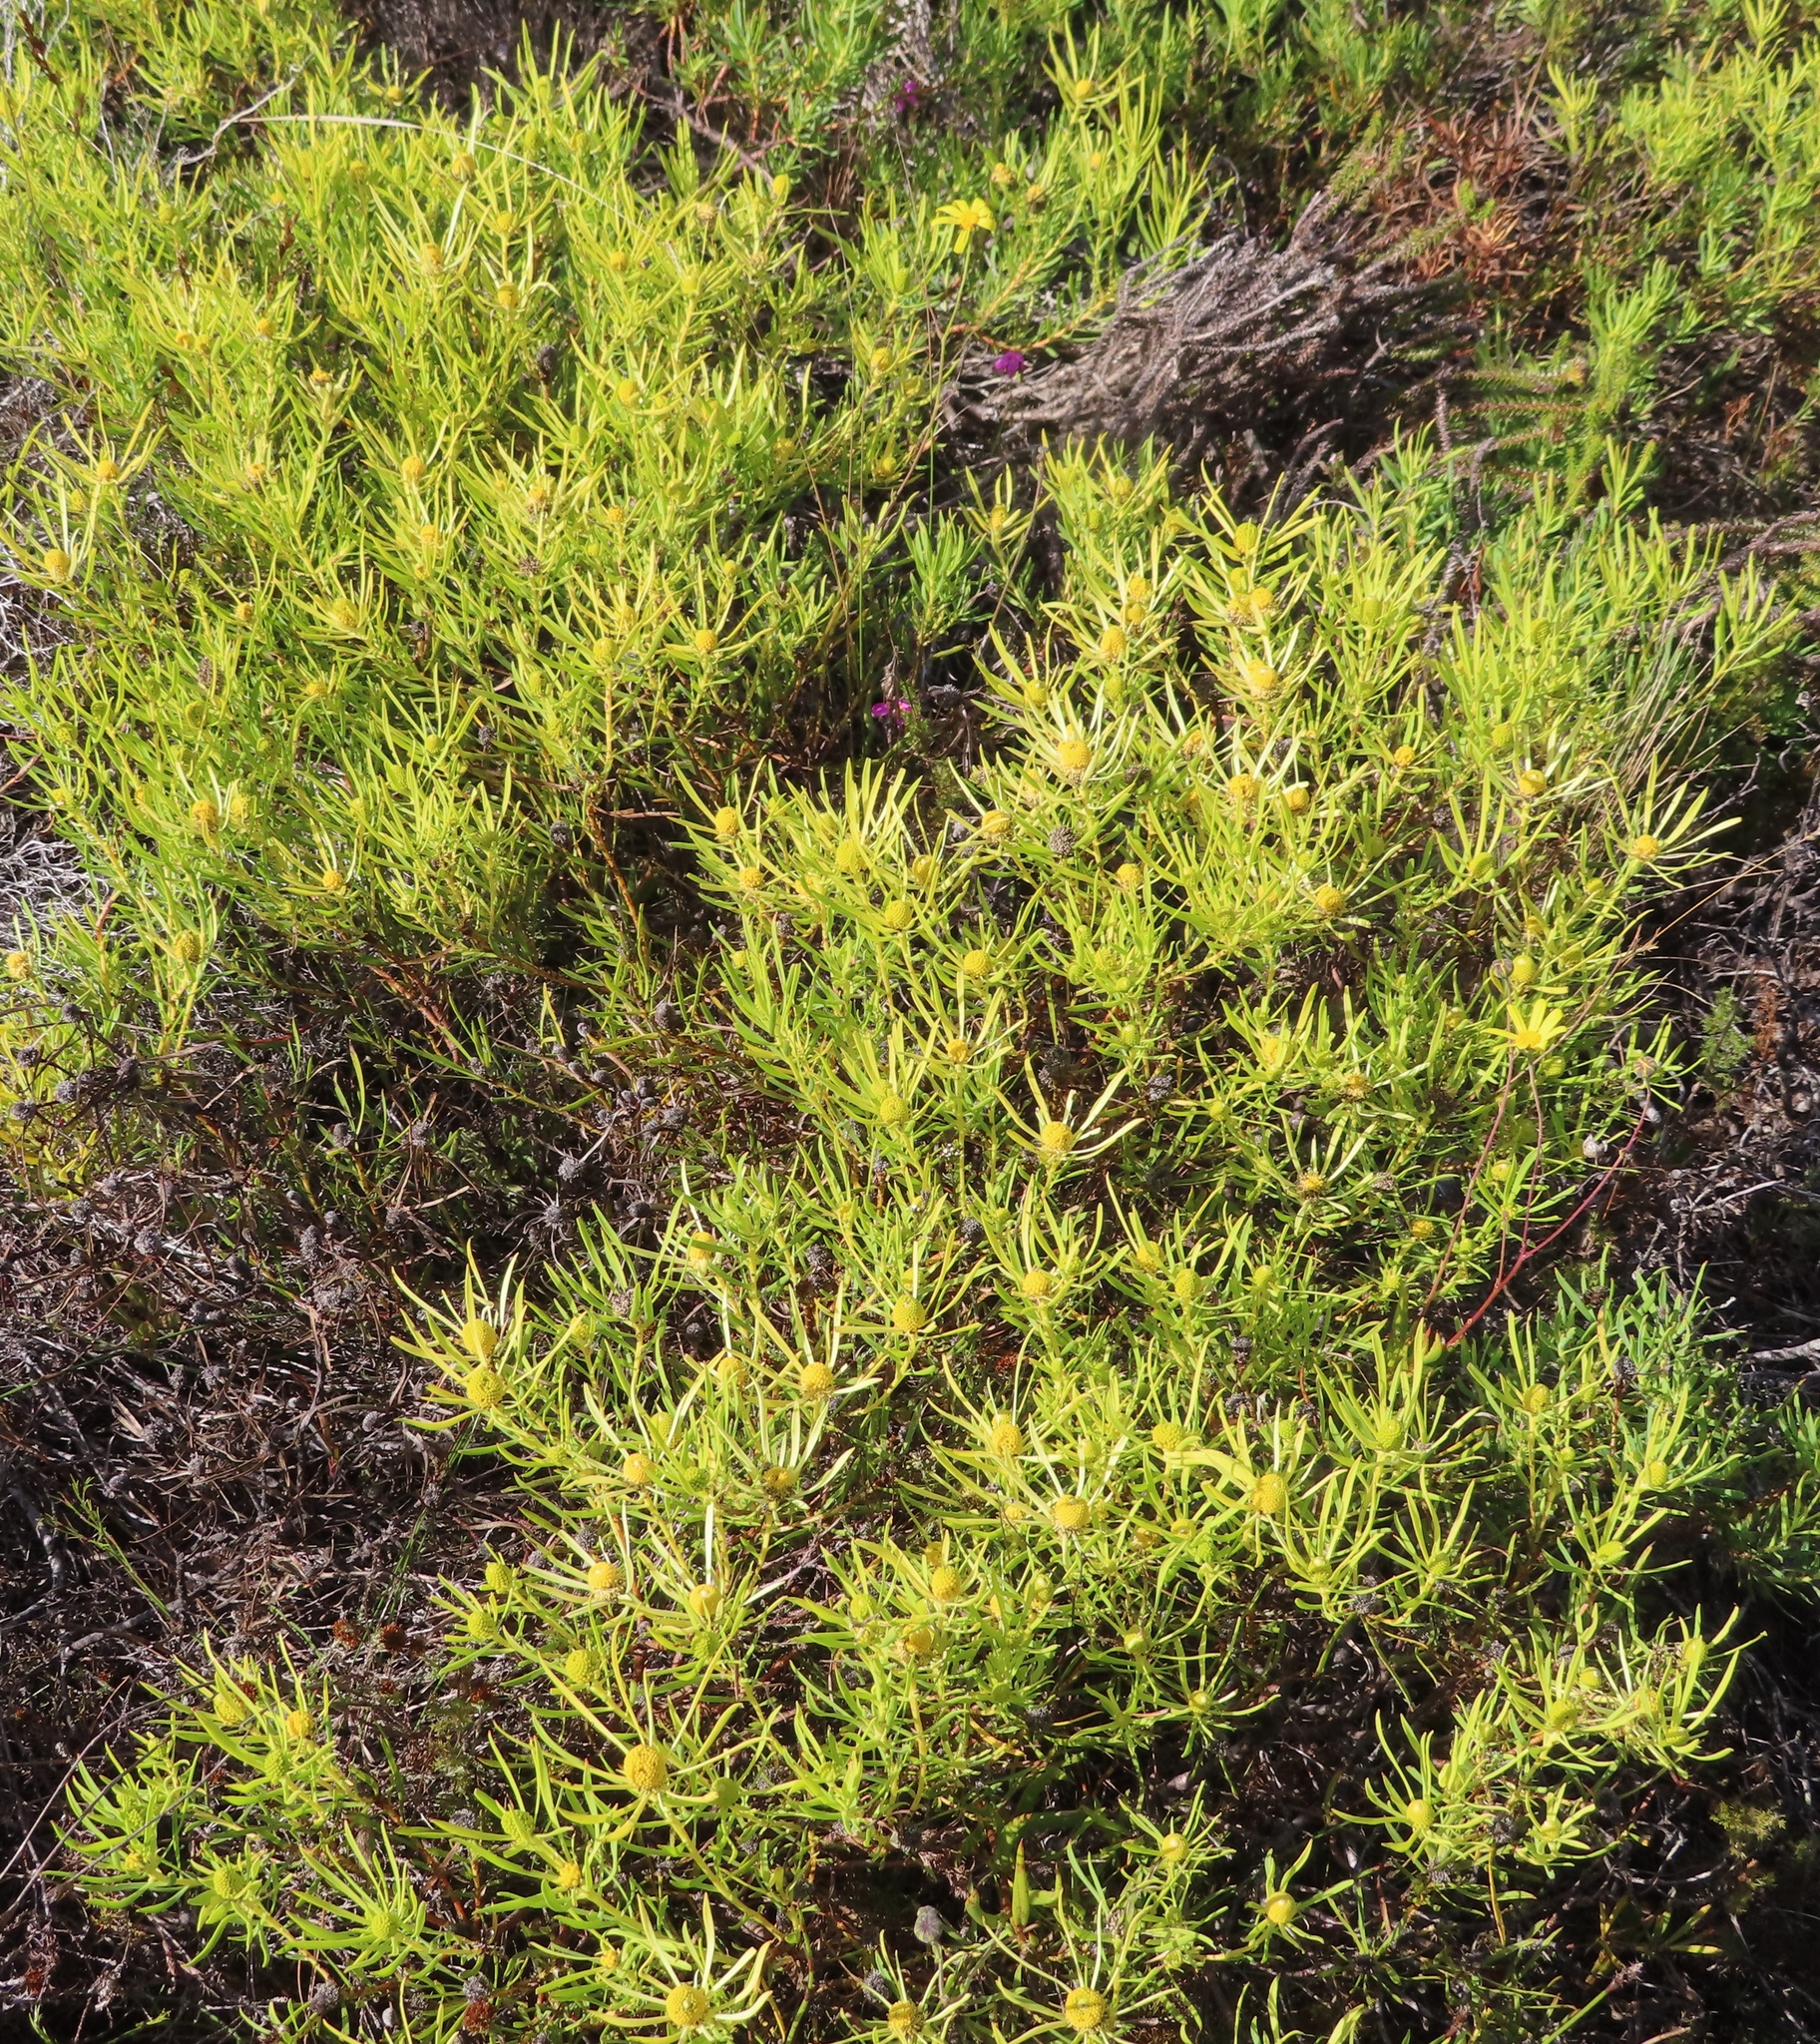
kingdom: Plantae
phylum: Tracheophyta
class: Magnoliopsida
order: Proteales
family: Proteaceae
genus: Leucadendron
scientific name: Leucadendron salignum
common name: Common sunshine conebush
